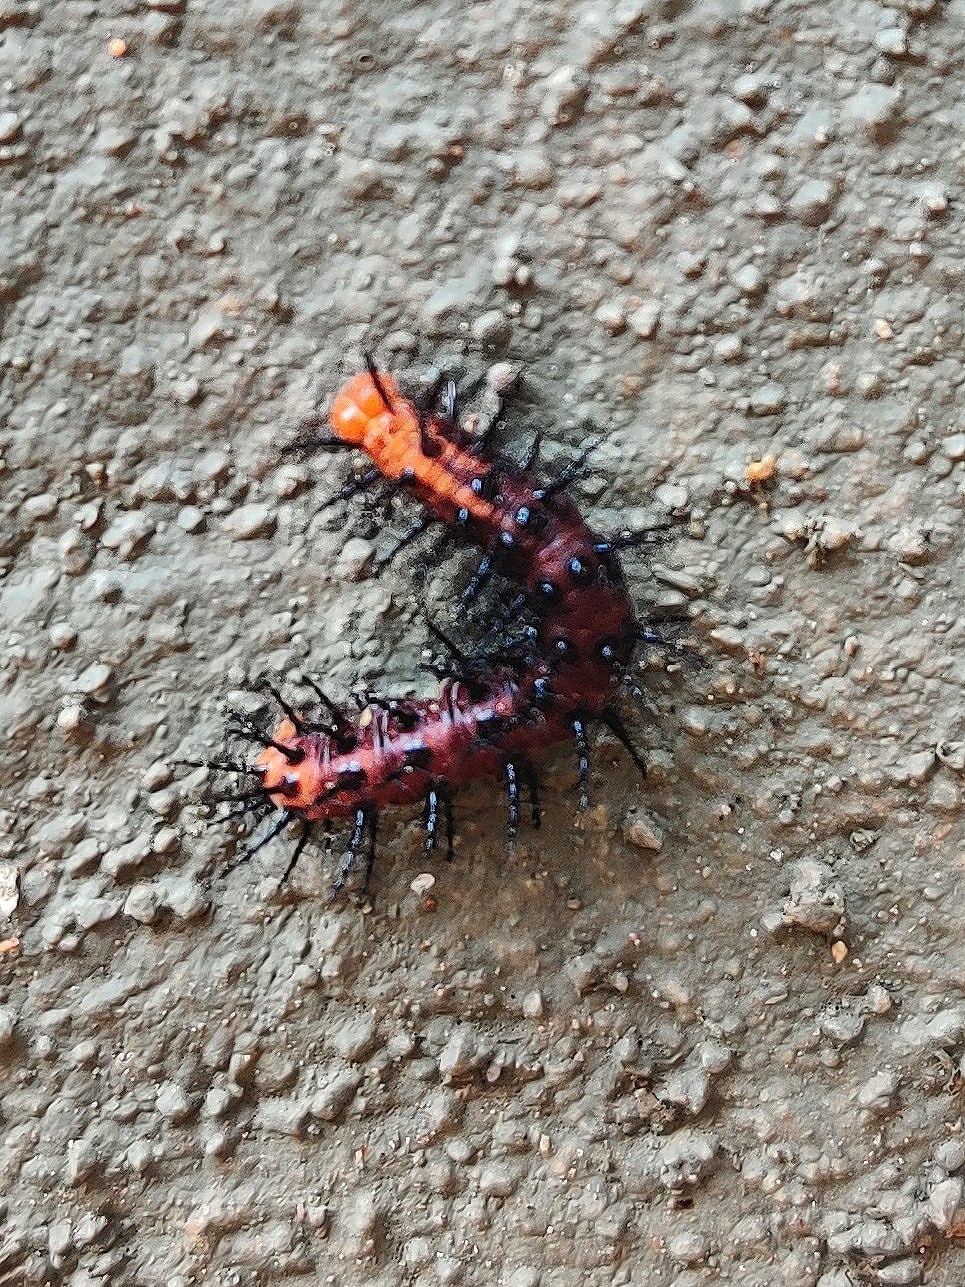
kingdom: Animalia
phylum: Arthropoda
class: Insecta
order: Lepidoptera
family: Nymphalidae
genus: Acraea
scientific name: Acraea terpsicore
